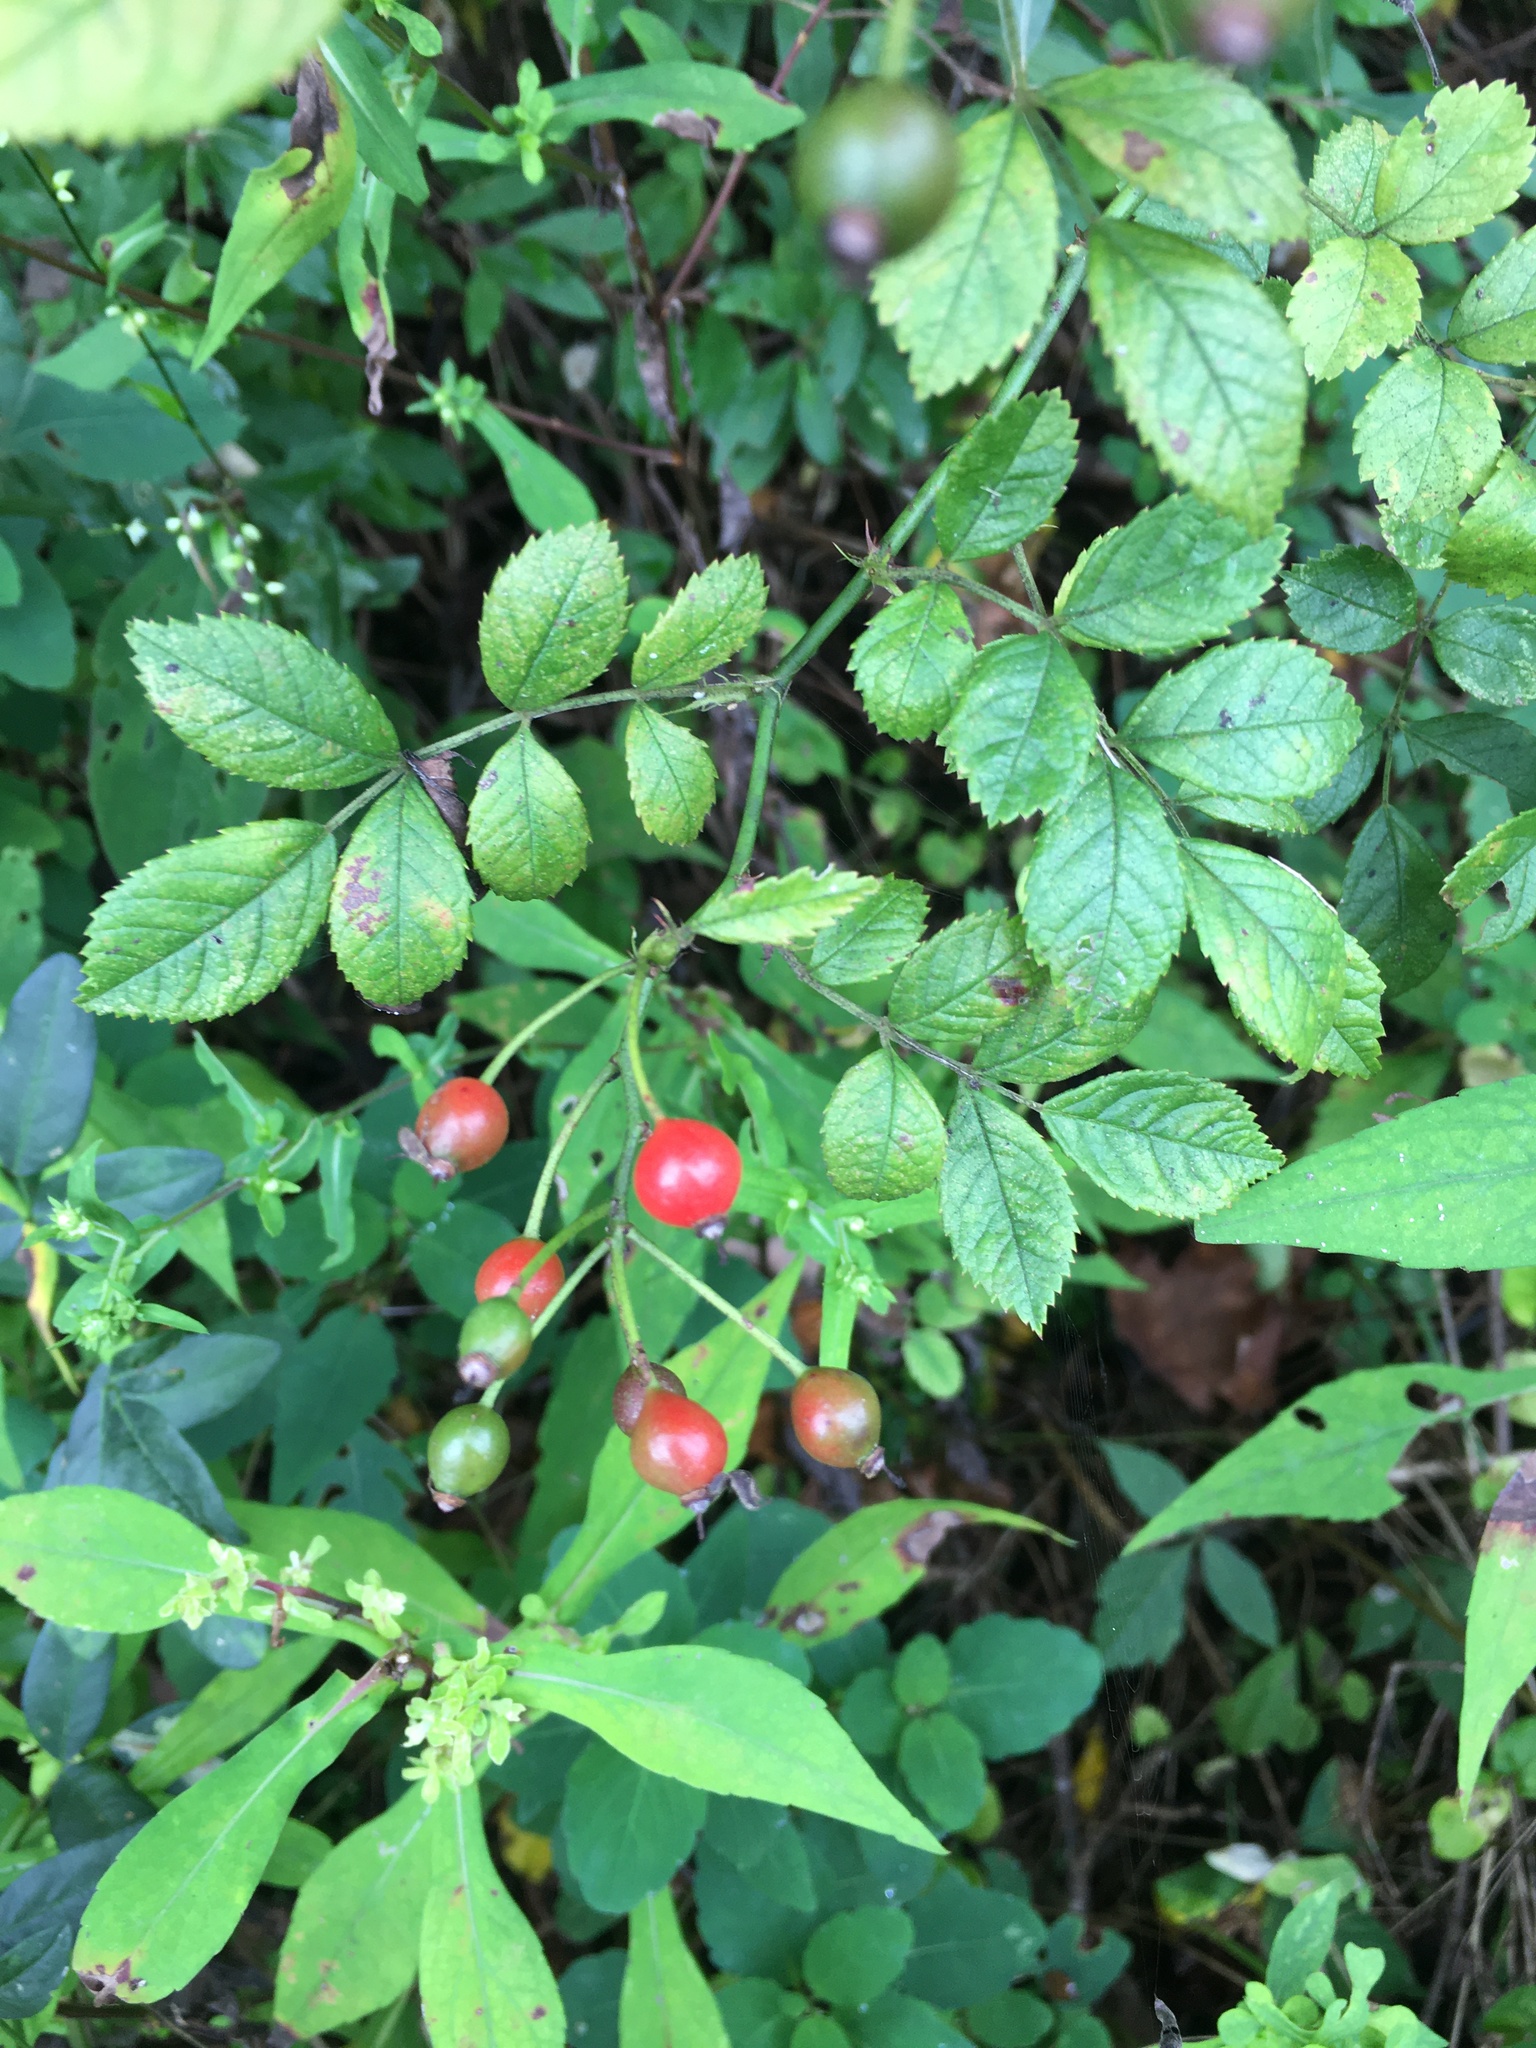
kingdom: Plantae
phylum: Tracheophyta
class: Magnoliopsida
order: Rosales
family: Rosaceae
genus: Rosa
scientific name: Rosa multiflora
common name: Multiflora rose
